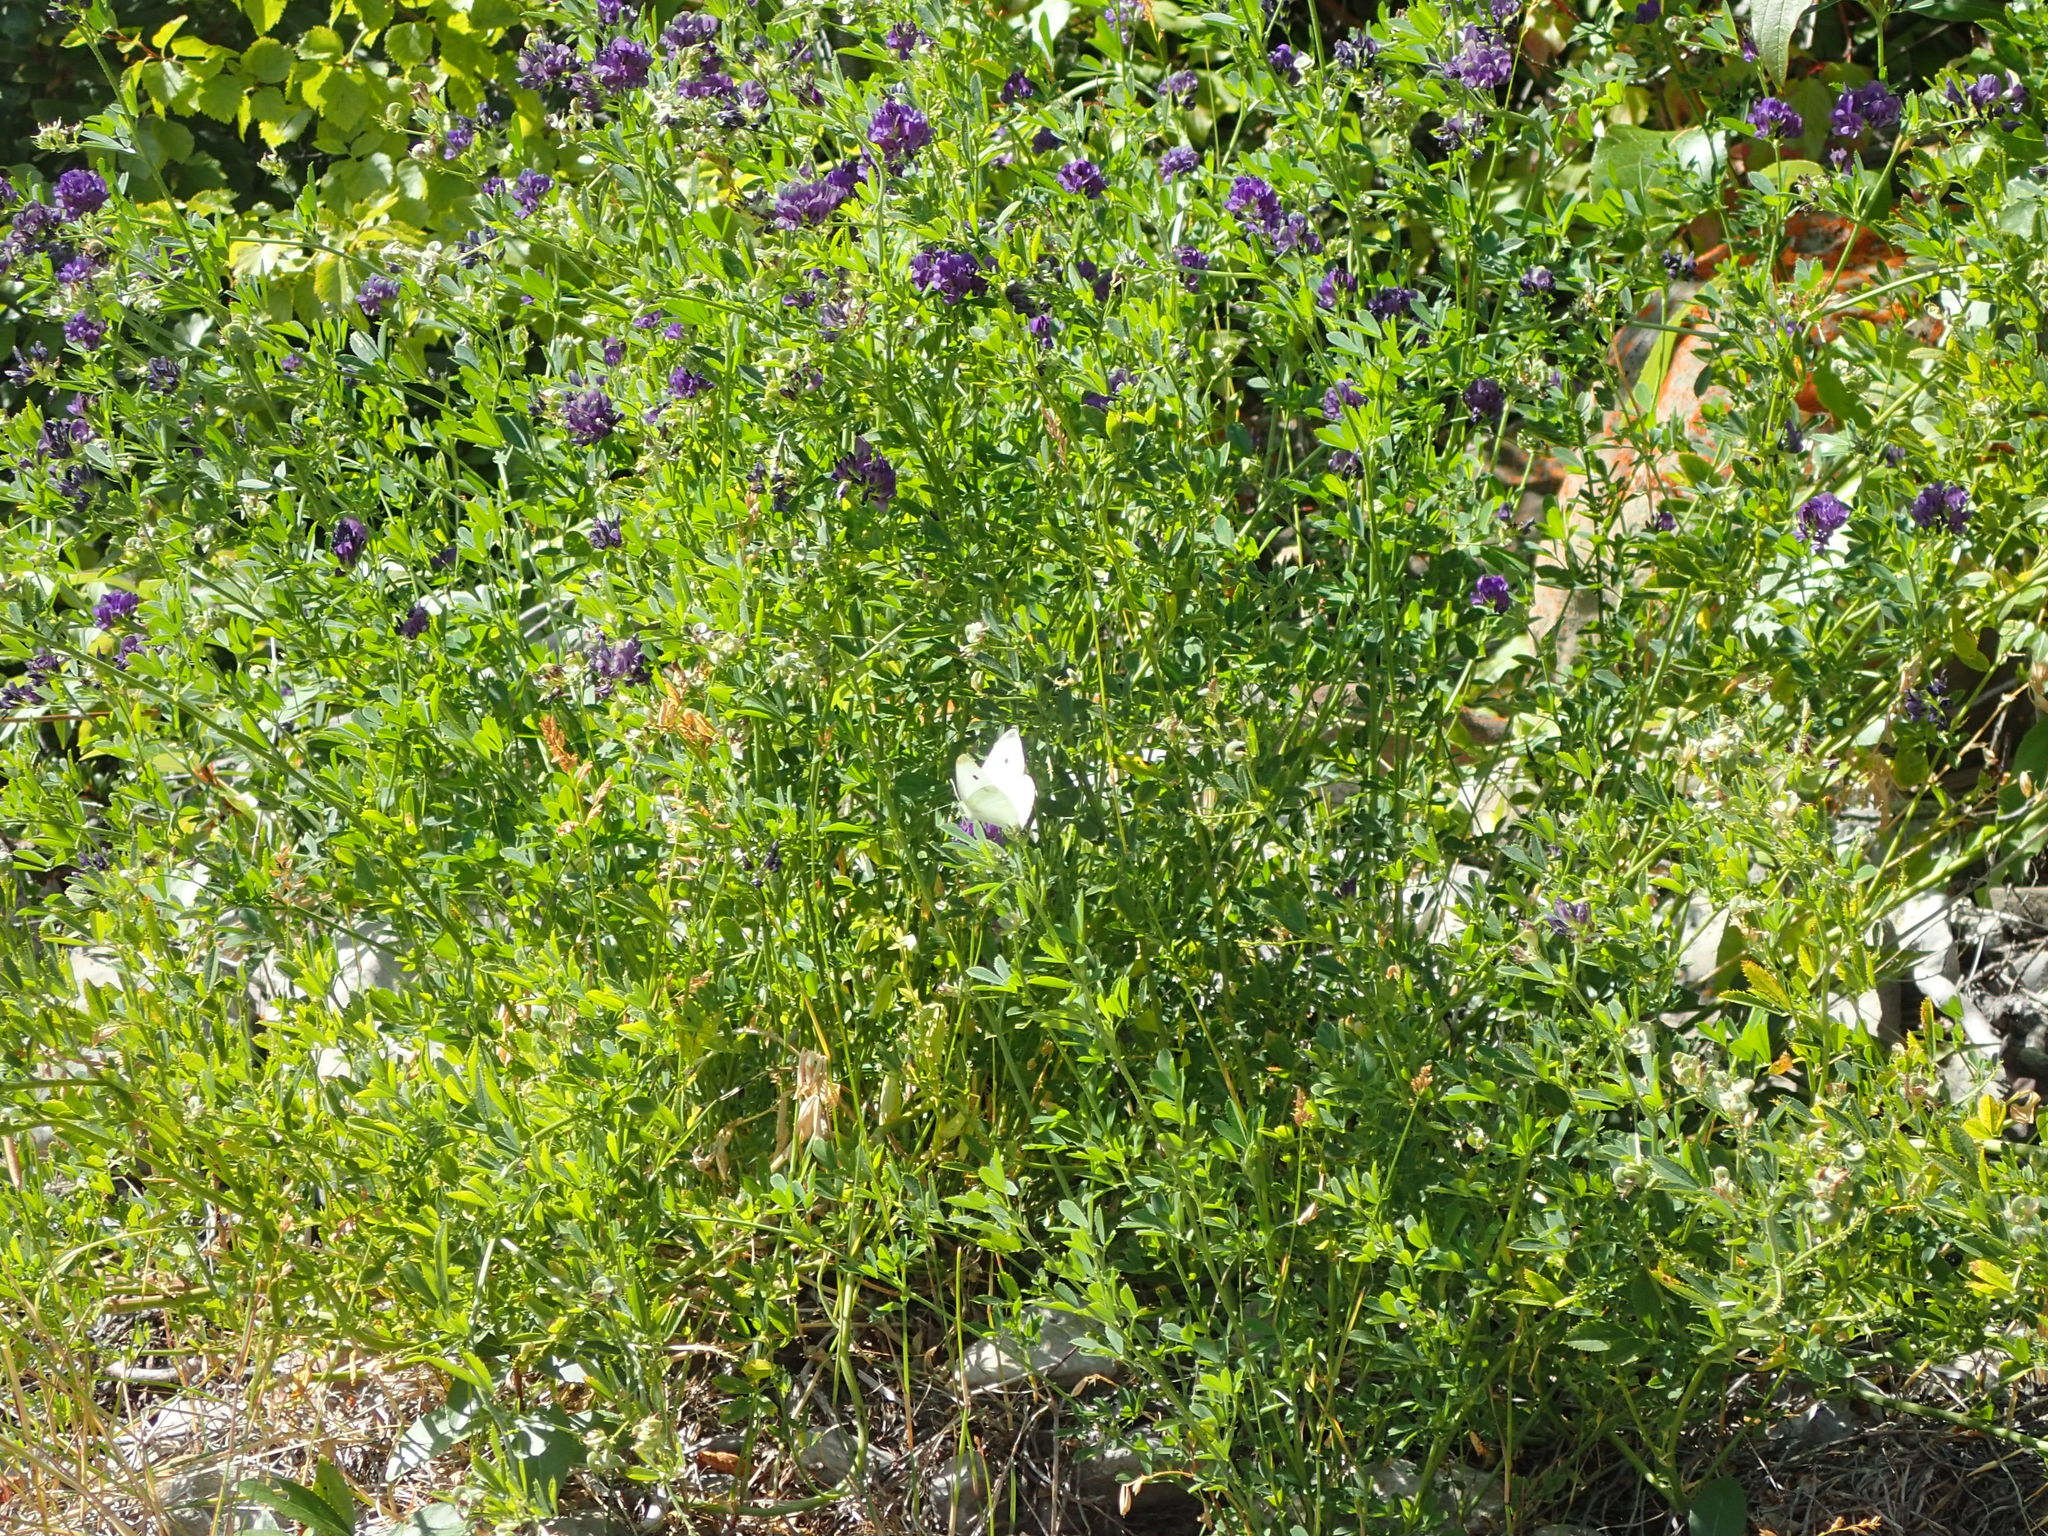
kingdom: Plantae
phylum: Tracheophyta
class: Magnoliopsida
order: Fabales
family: Fabaceae
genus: Medicago
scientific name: Medicago sativa
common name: Alfalfa
